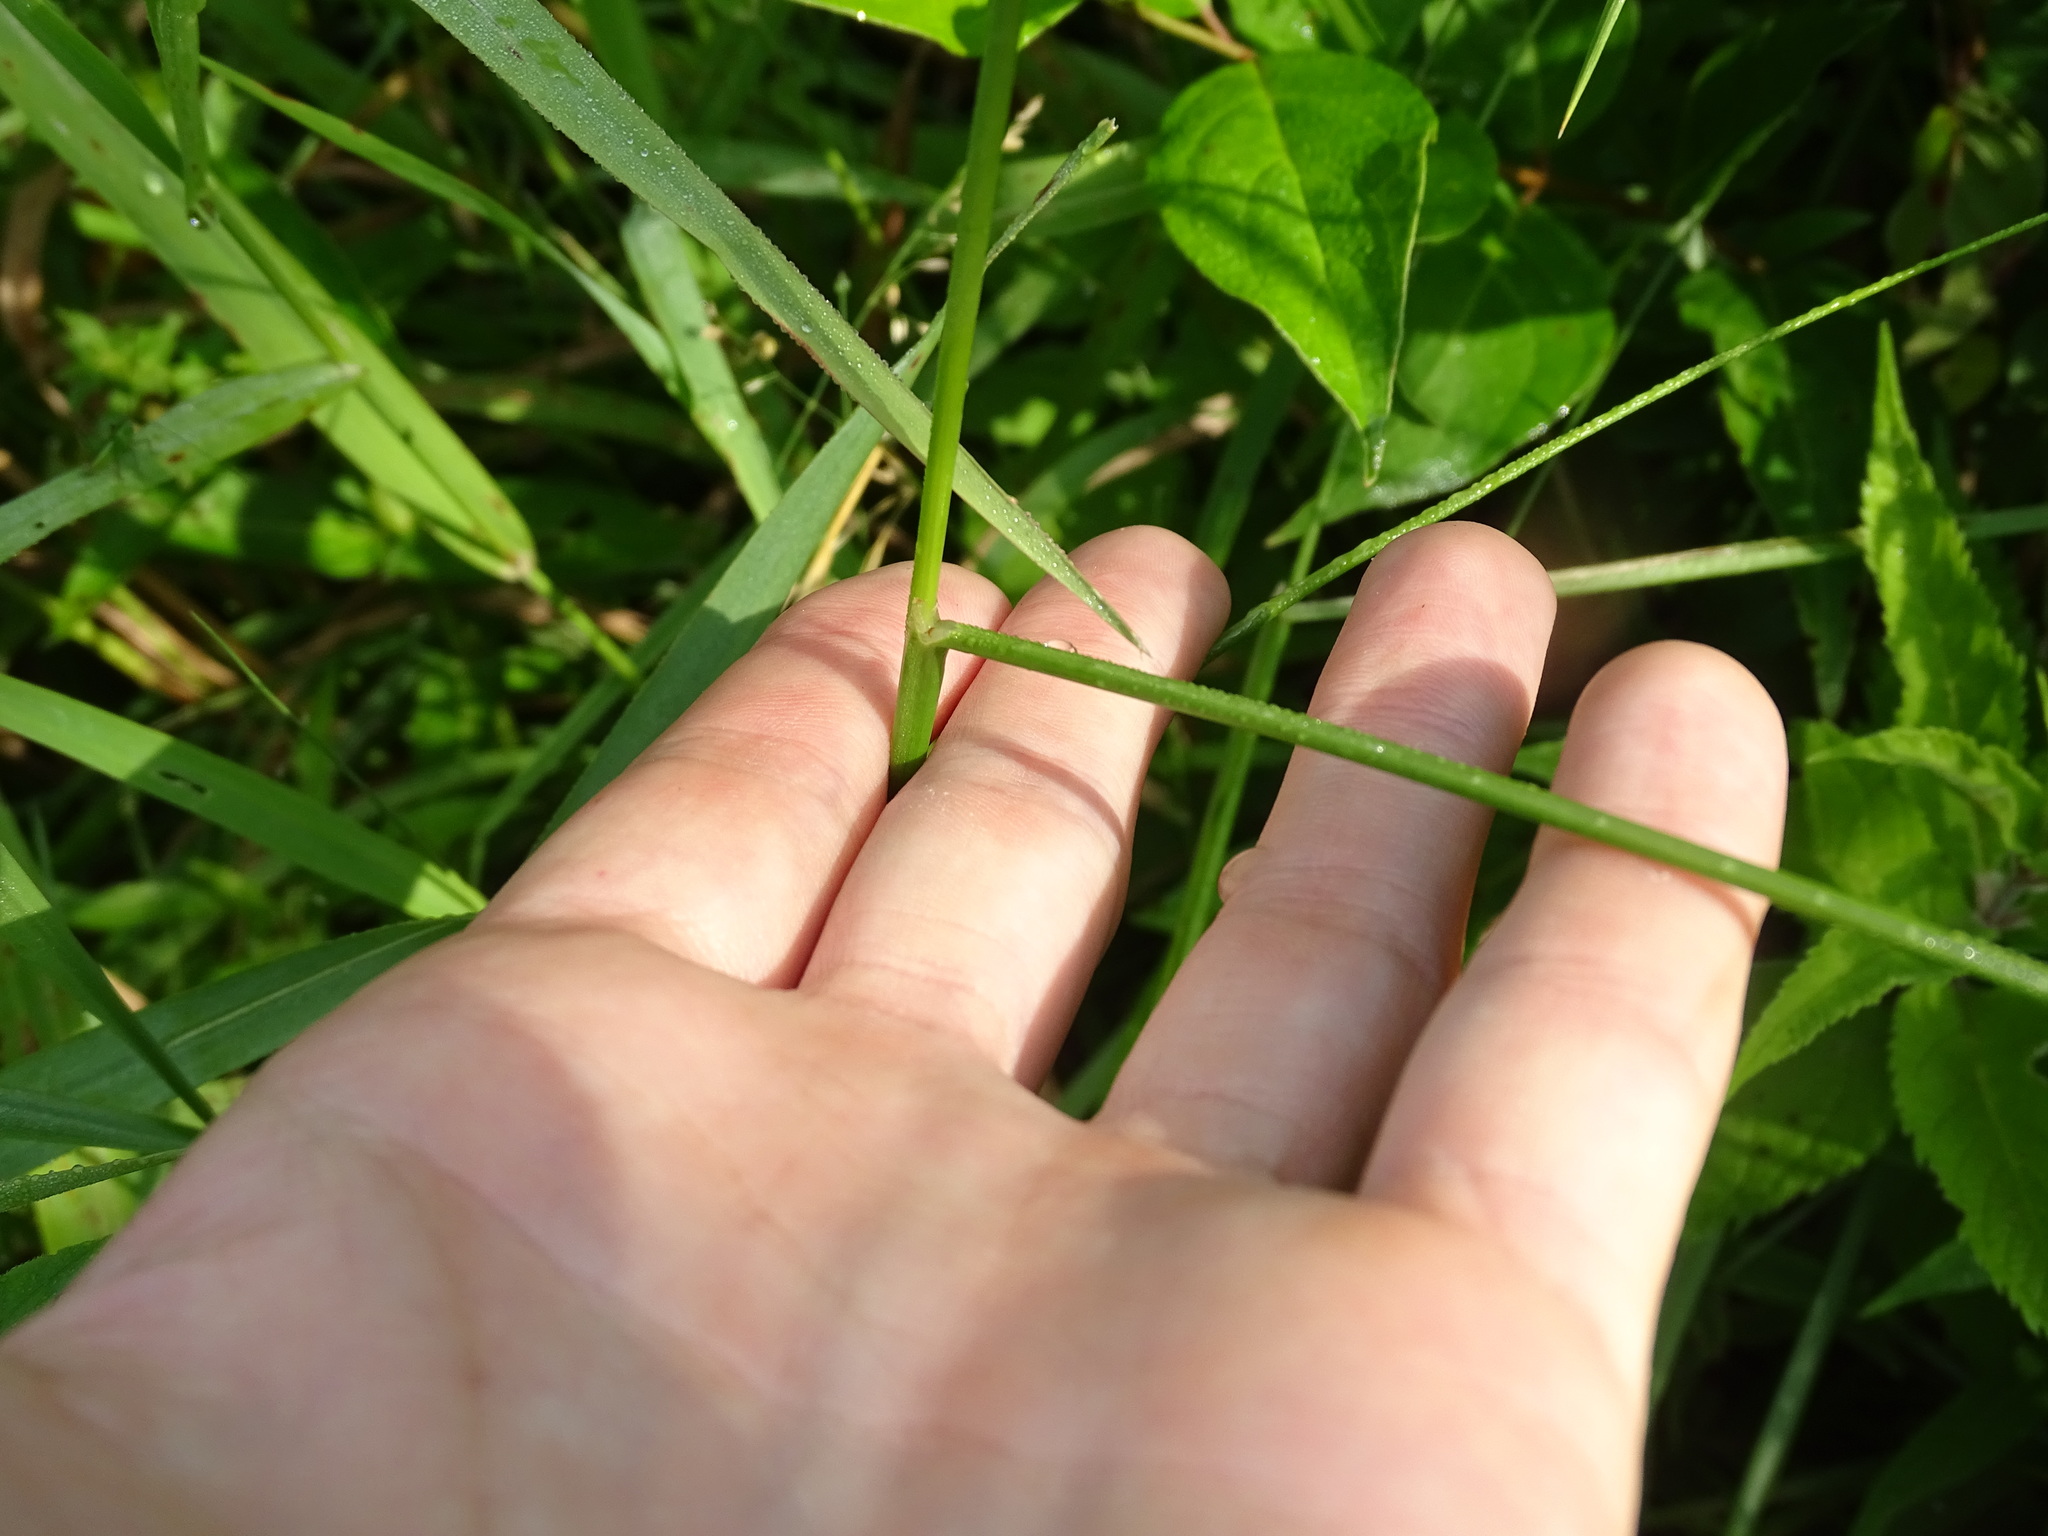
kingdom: Plantae
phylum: Tracheophyta
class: Liliopsida
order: Poales
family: Juncaceae
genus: Juncus
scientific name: Juncus torreyi
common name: Torrey's rush
